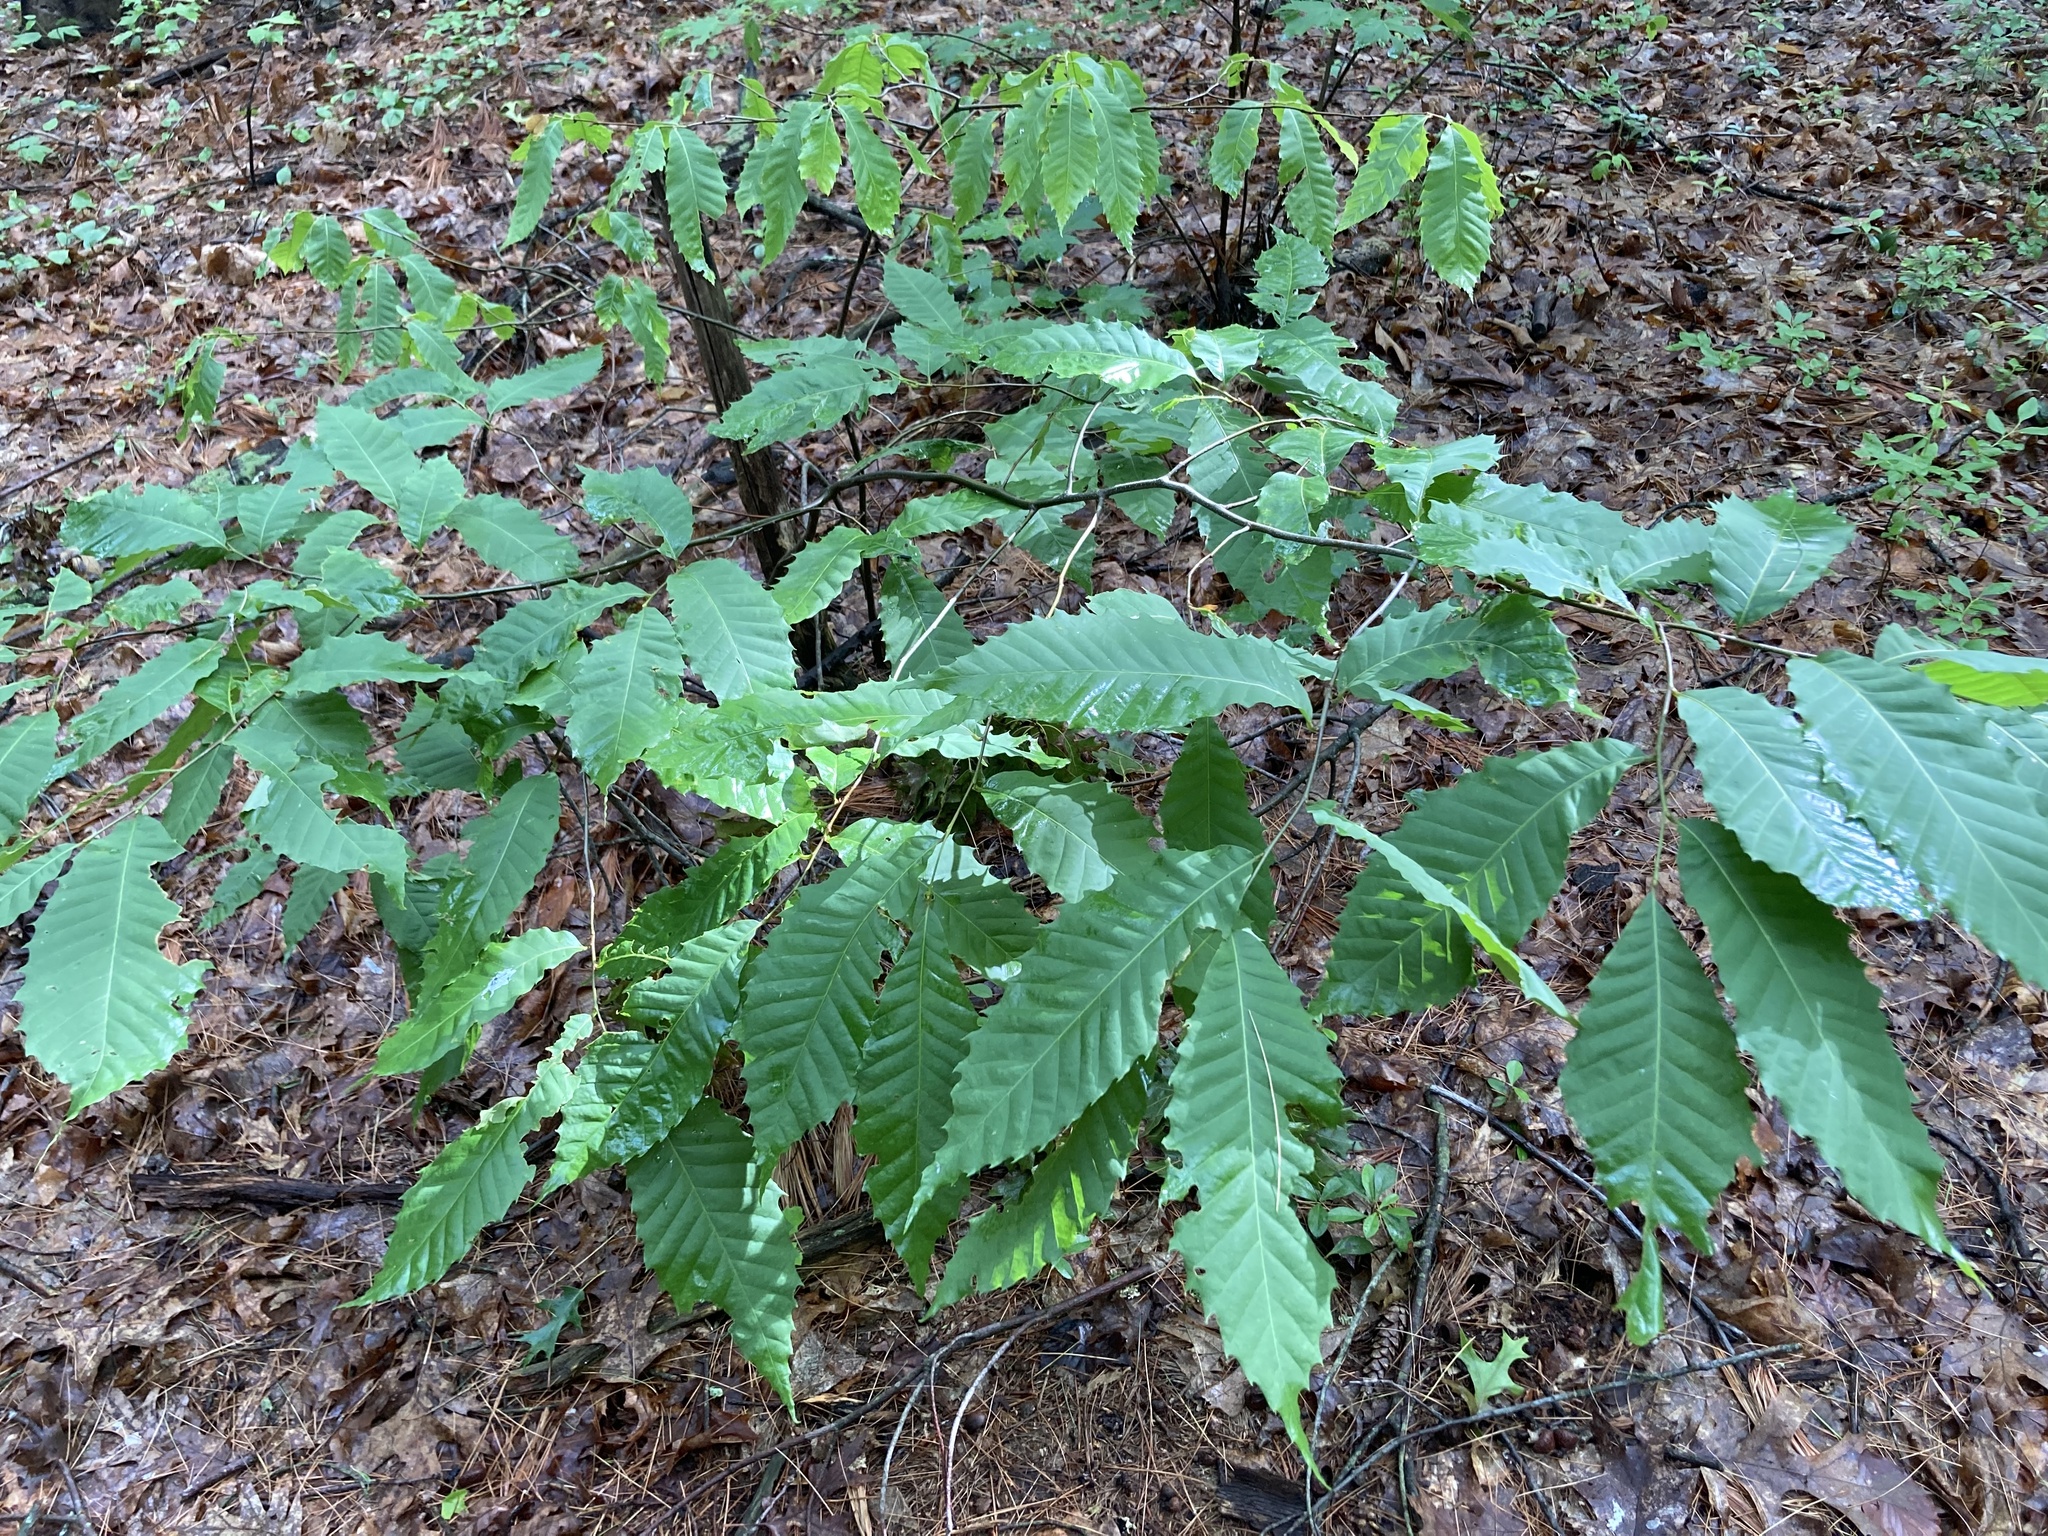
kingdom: Plantae
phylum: Tracheophyta
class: Magnoliopsida
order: Fagales
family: Fagaceae
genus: Castanea
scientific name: Castanea dentata
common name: American chestnut
